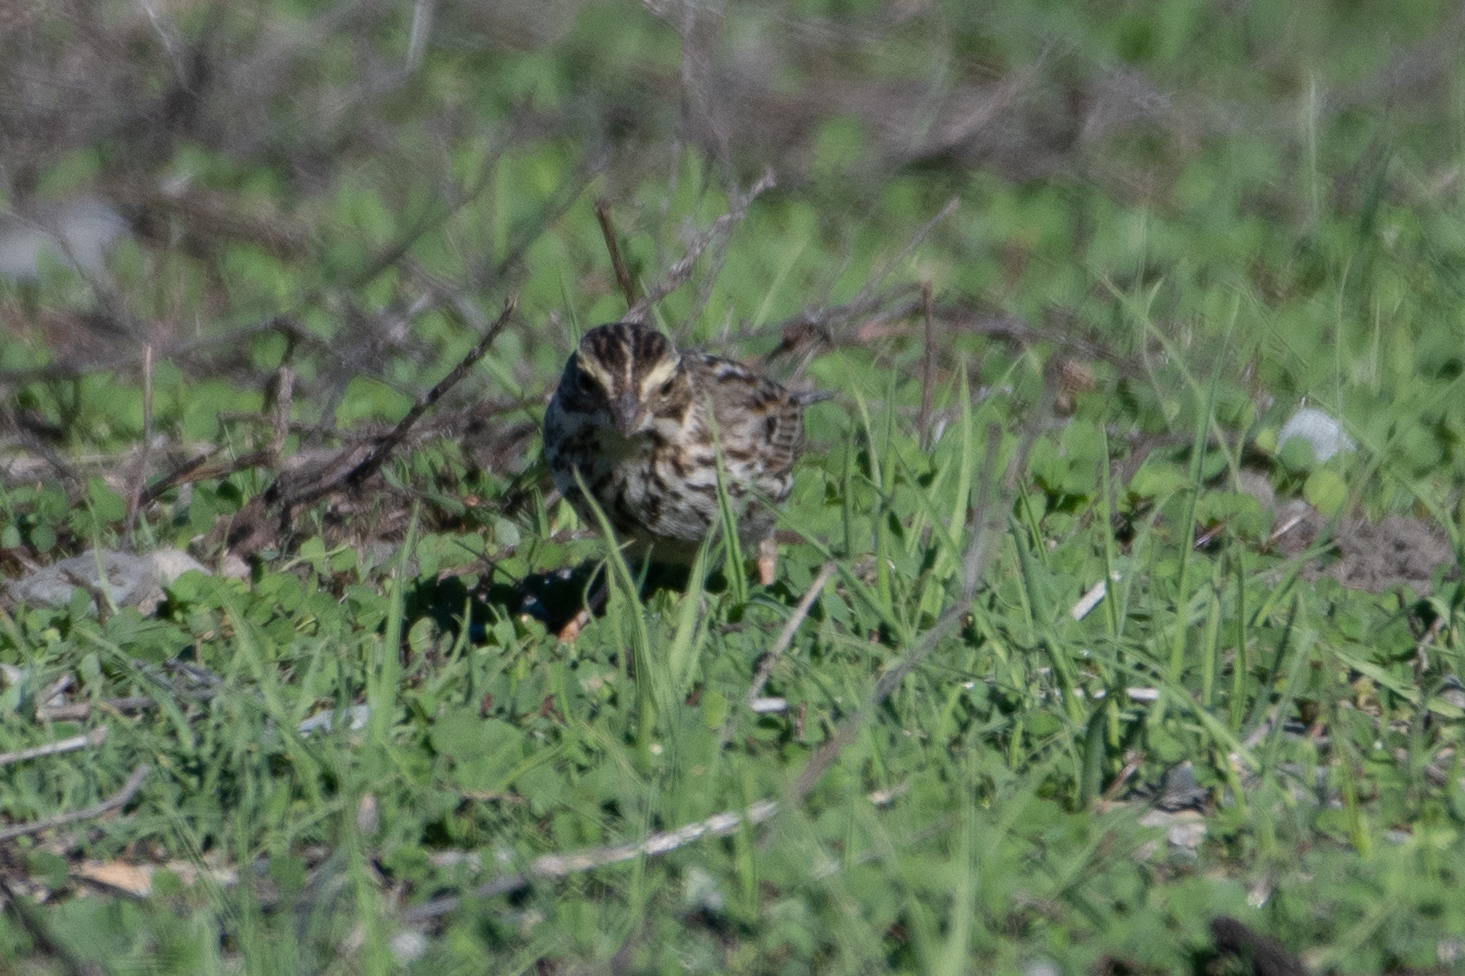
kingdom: Animalia
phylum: Chordata
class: Aves
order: Passeriformes
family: Passerellidae
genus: Passerculus
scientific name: Passerculus sandwichensis
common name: Savannah sparrow
